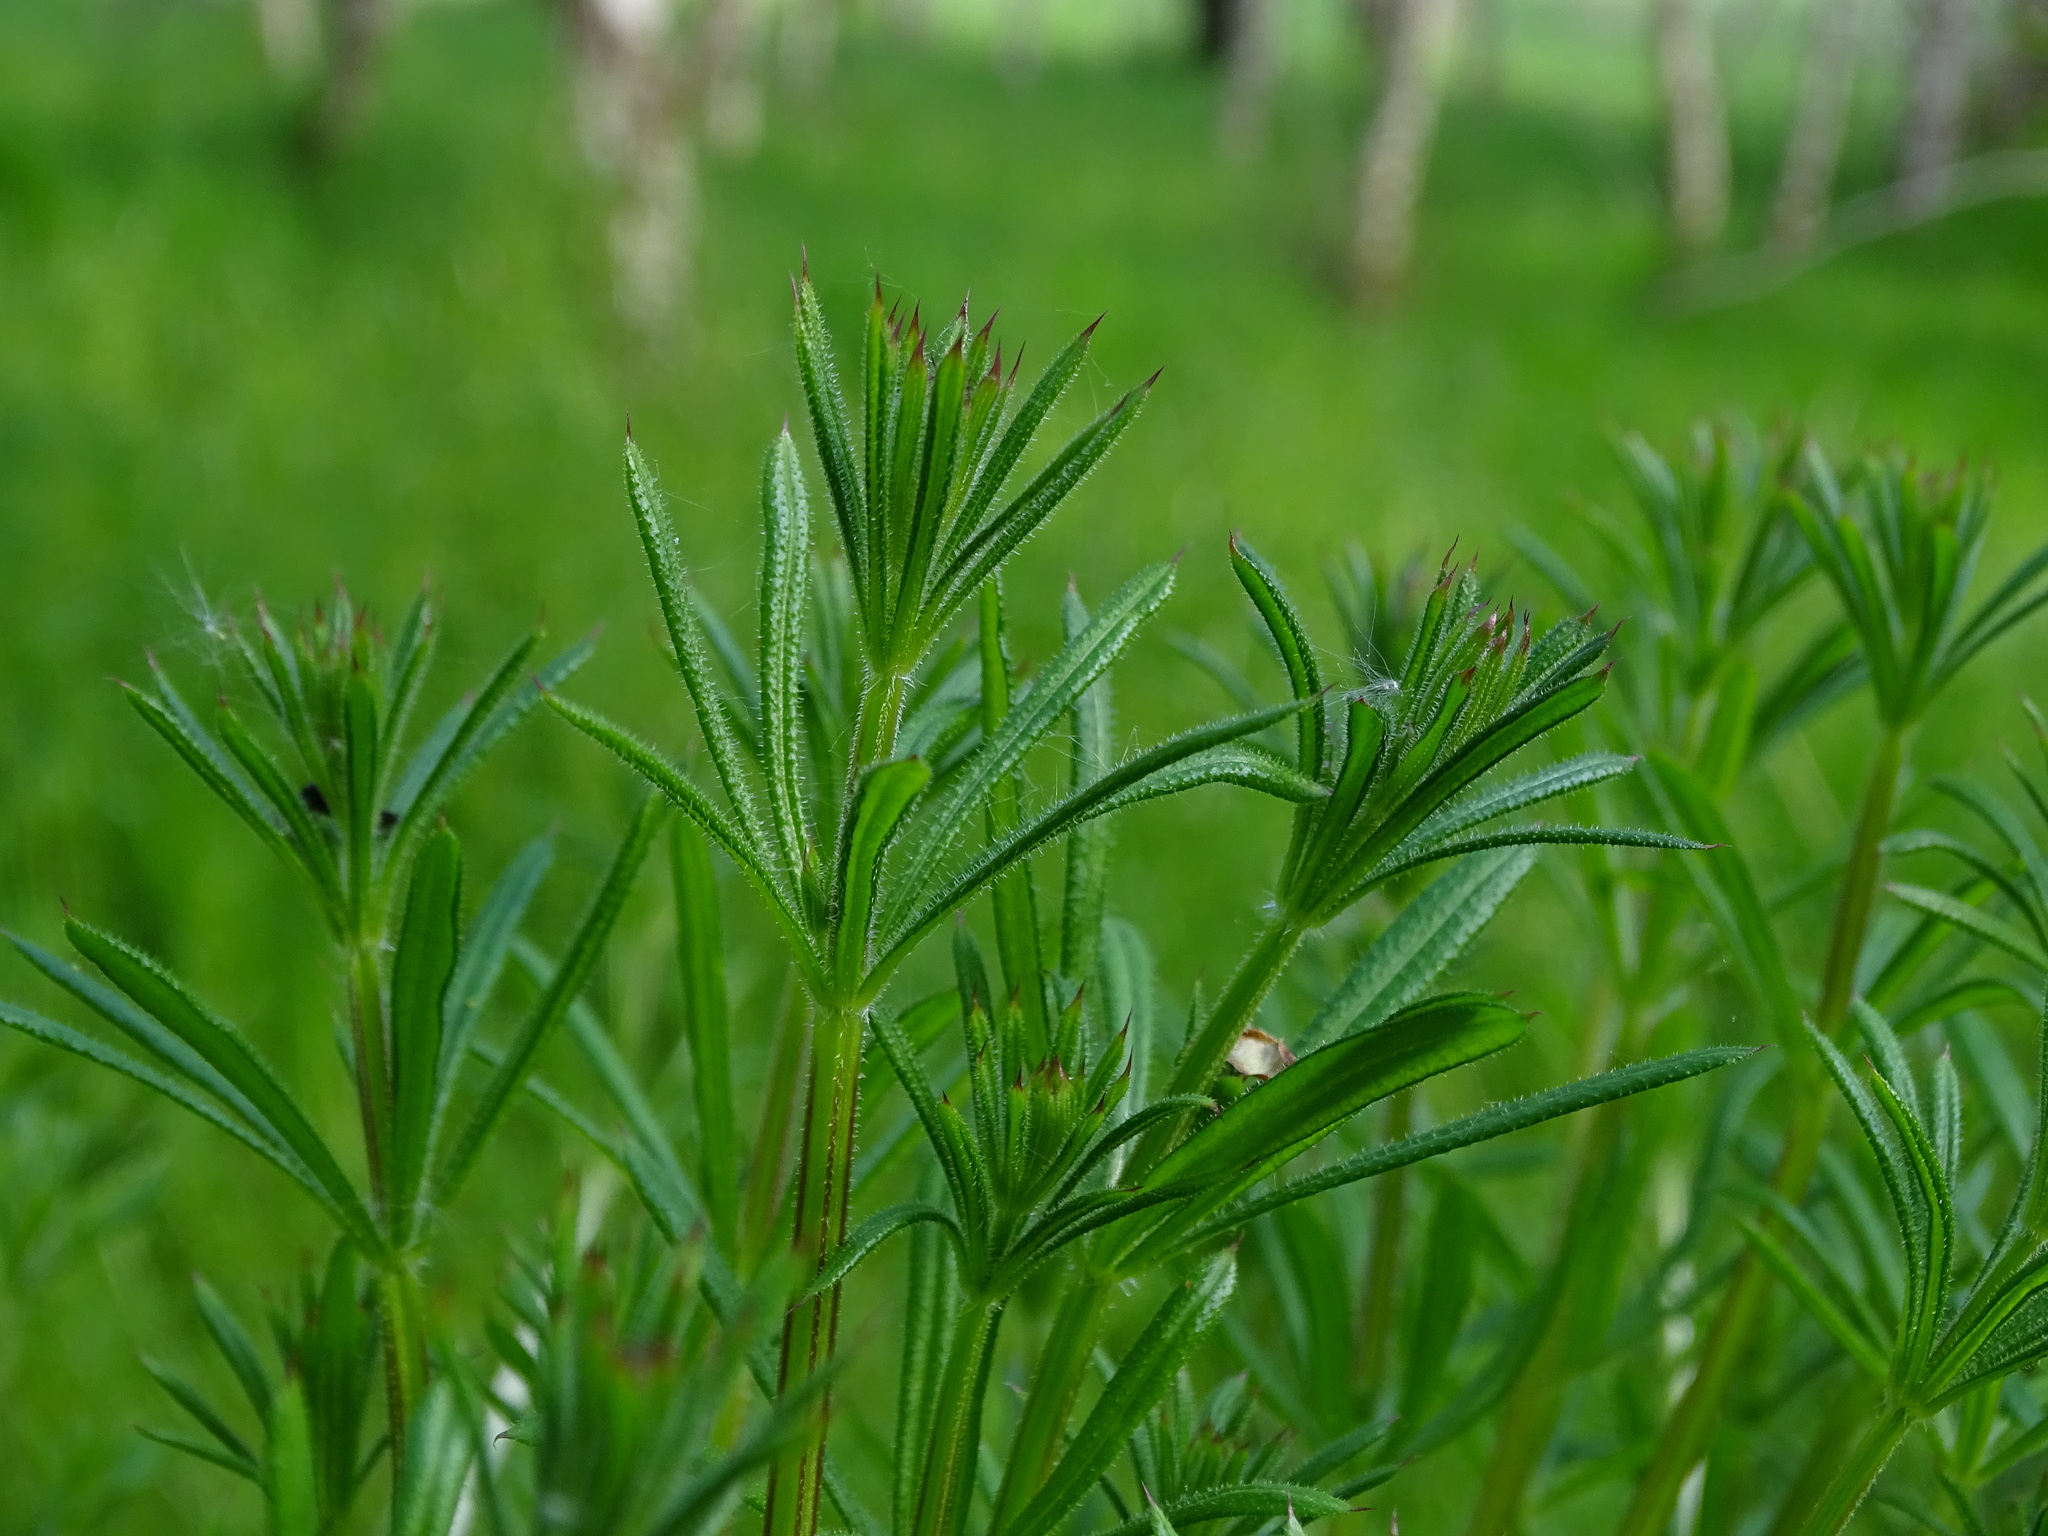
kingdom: Plantae
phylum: Tracheophyta
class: Magnoliopsida
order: Gentianales
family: Rubiaceae
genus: Galium
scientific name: Galium aparine
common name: Cleavers
